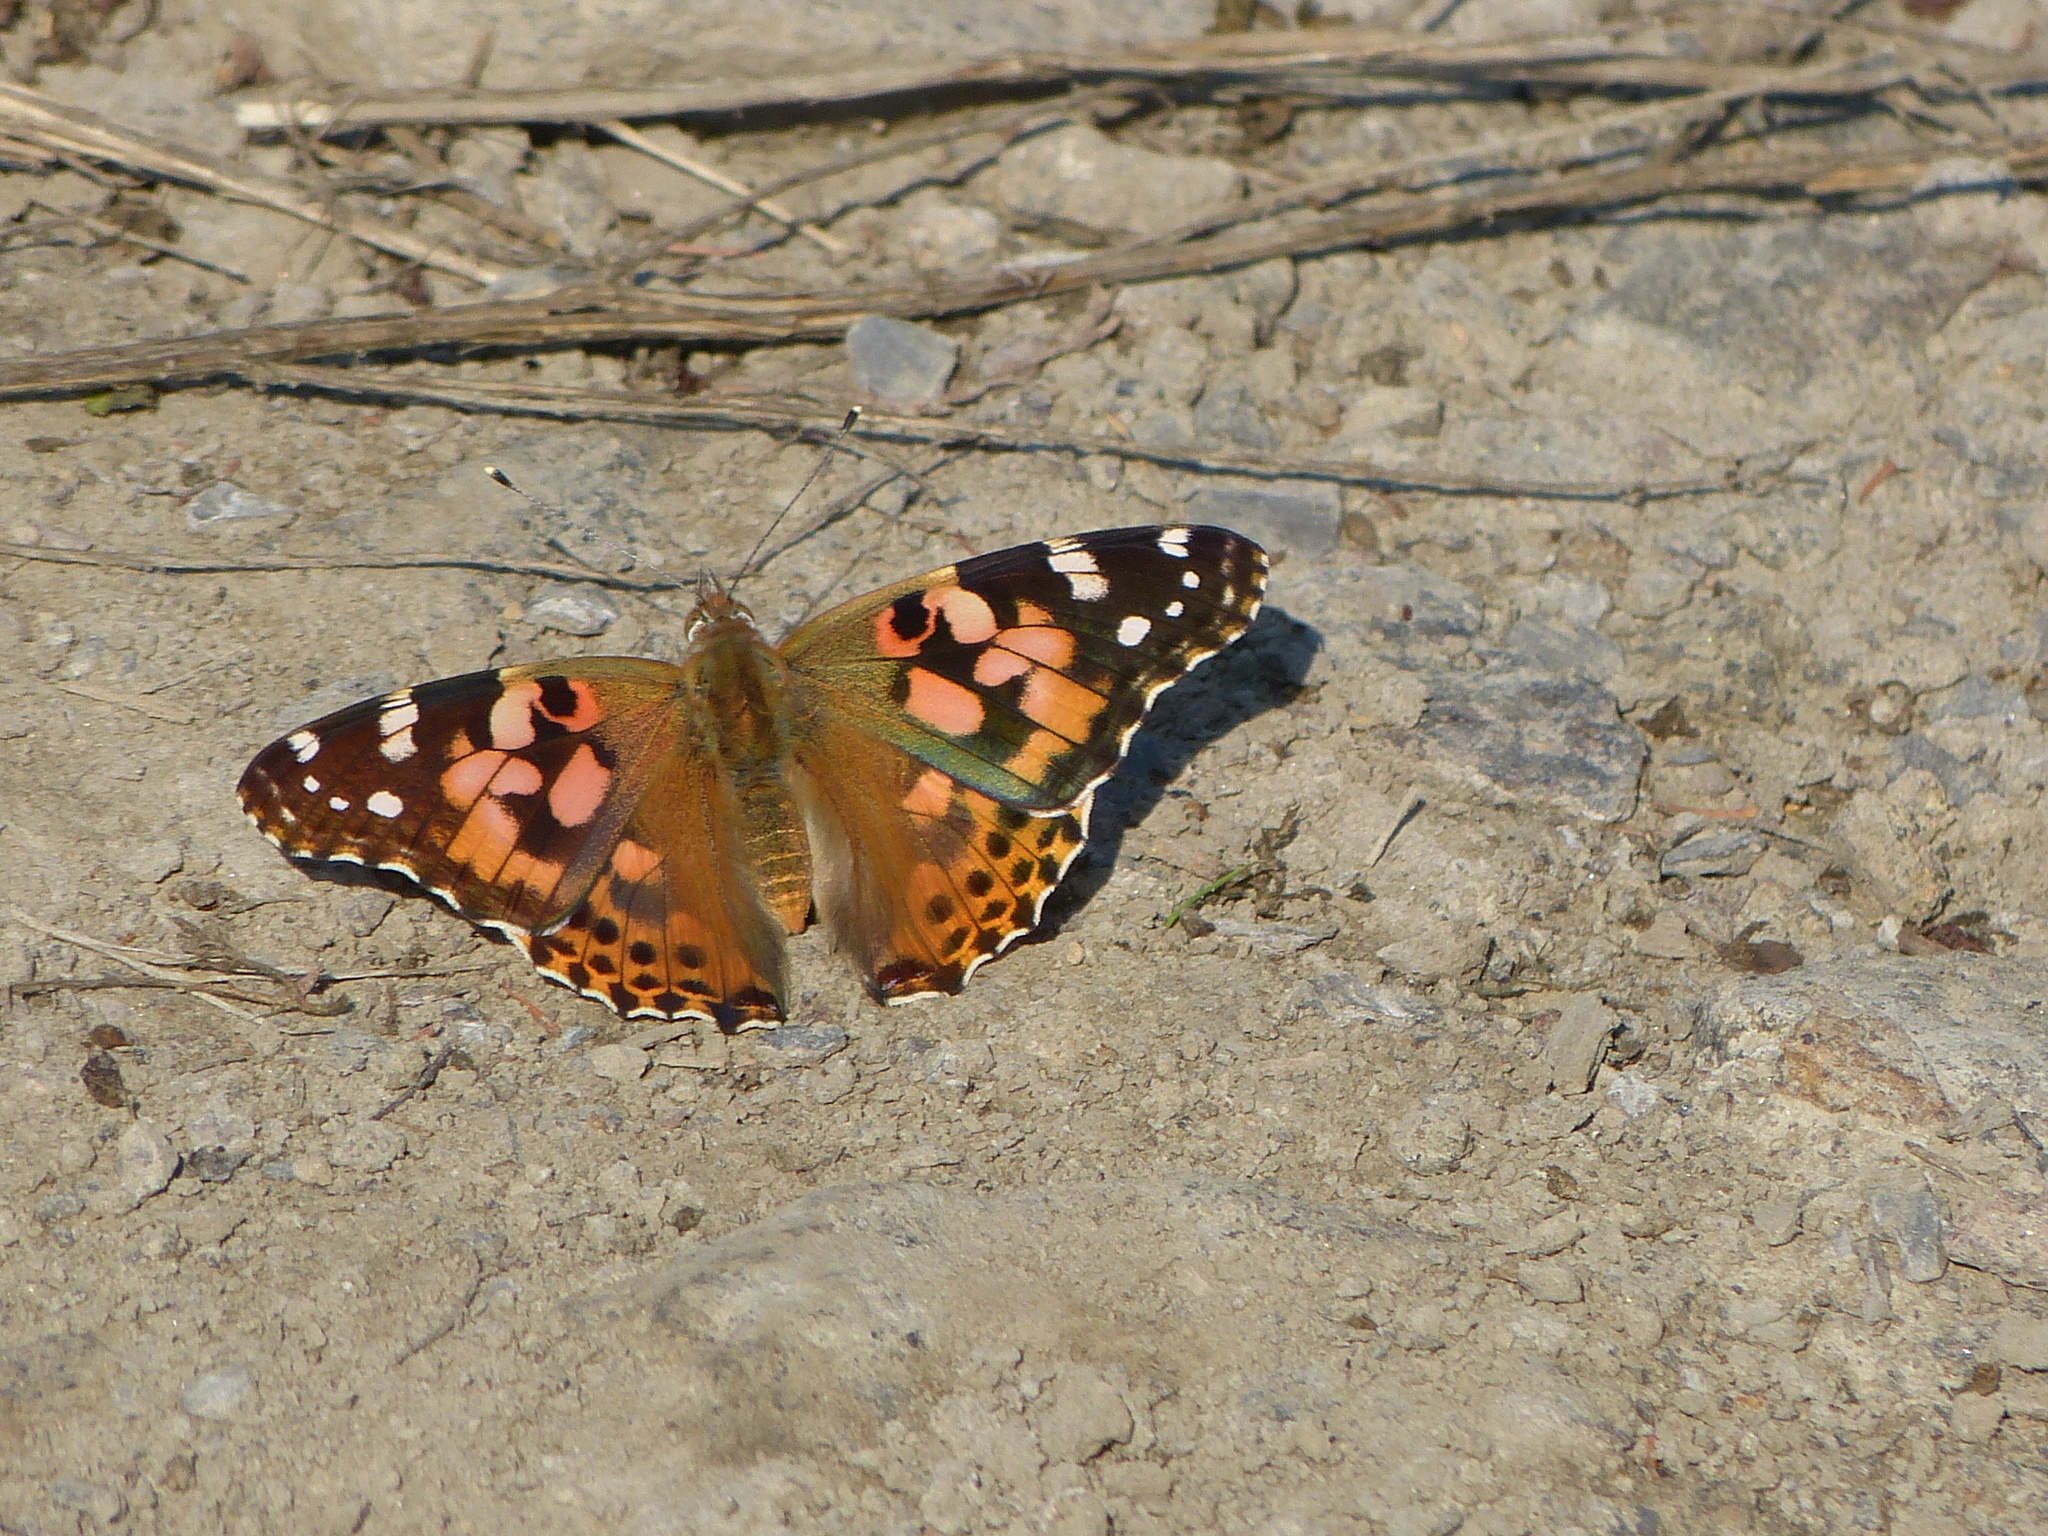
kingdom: Animalia
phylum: Arthropoda
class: Insecta
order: Lepidoptera
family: Nymphalidae
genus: Vanessa
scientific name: Vanessa cardui
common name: Painted lady
